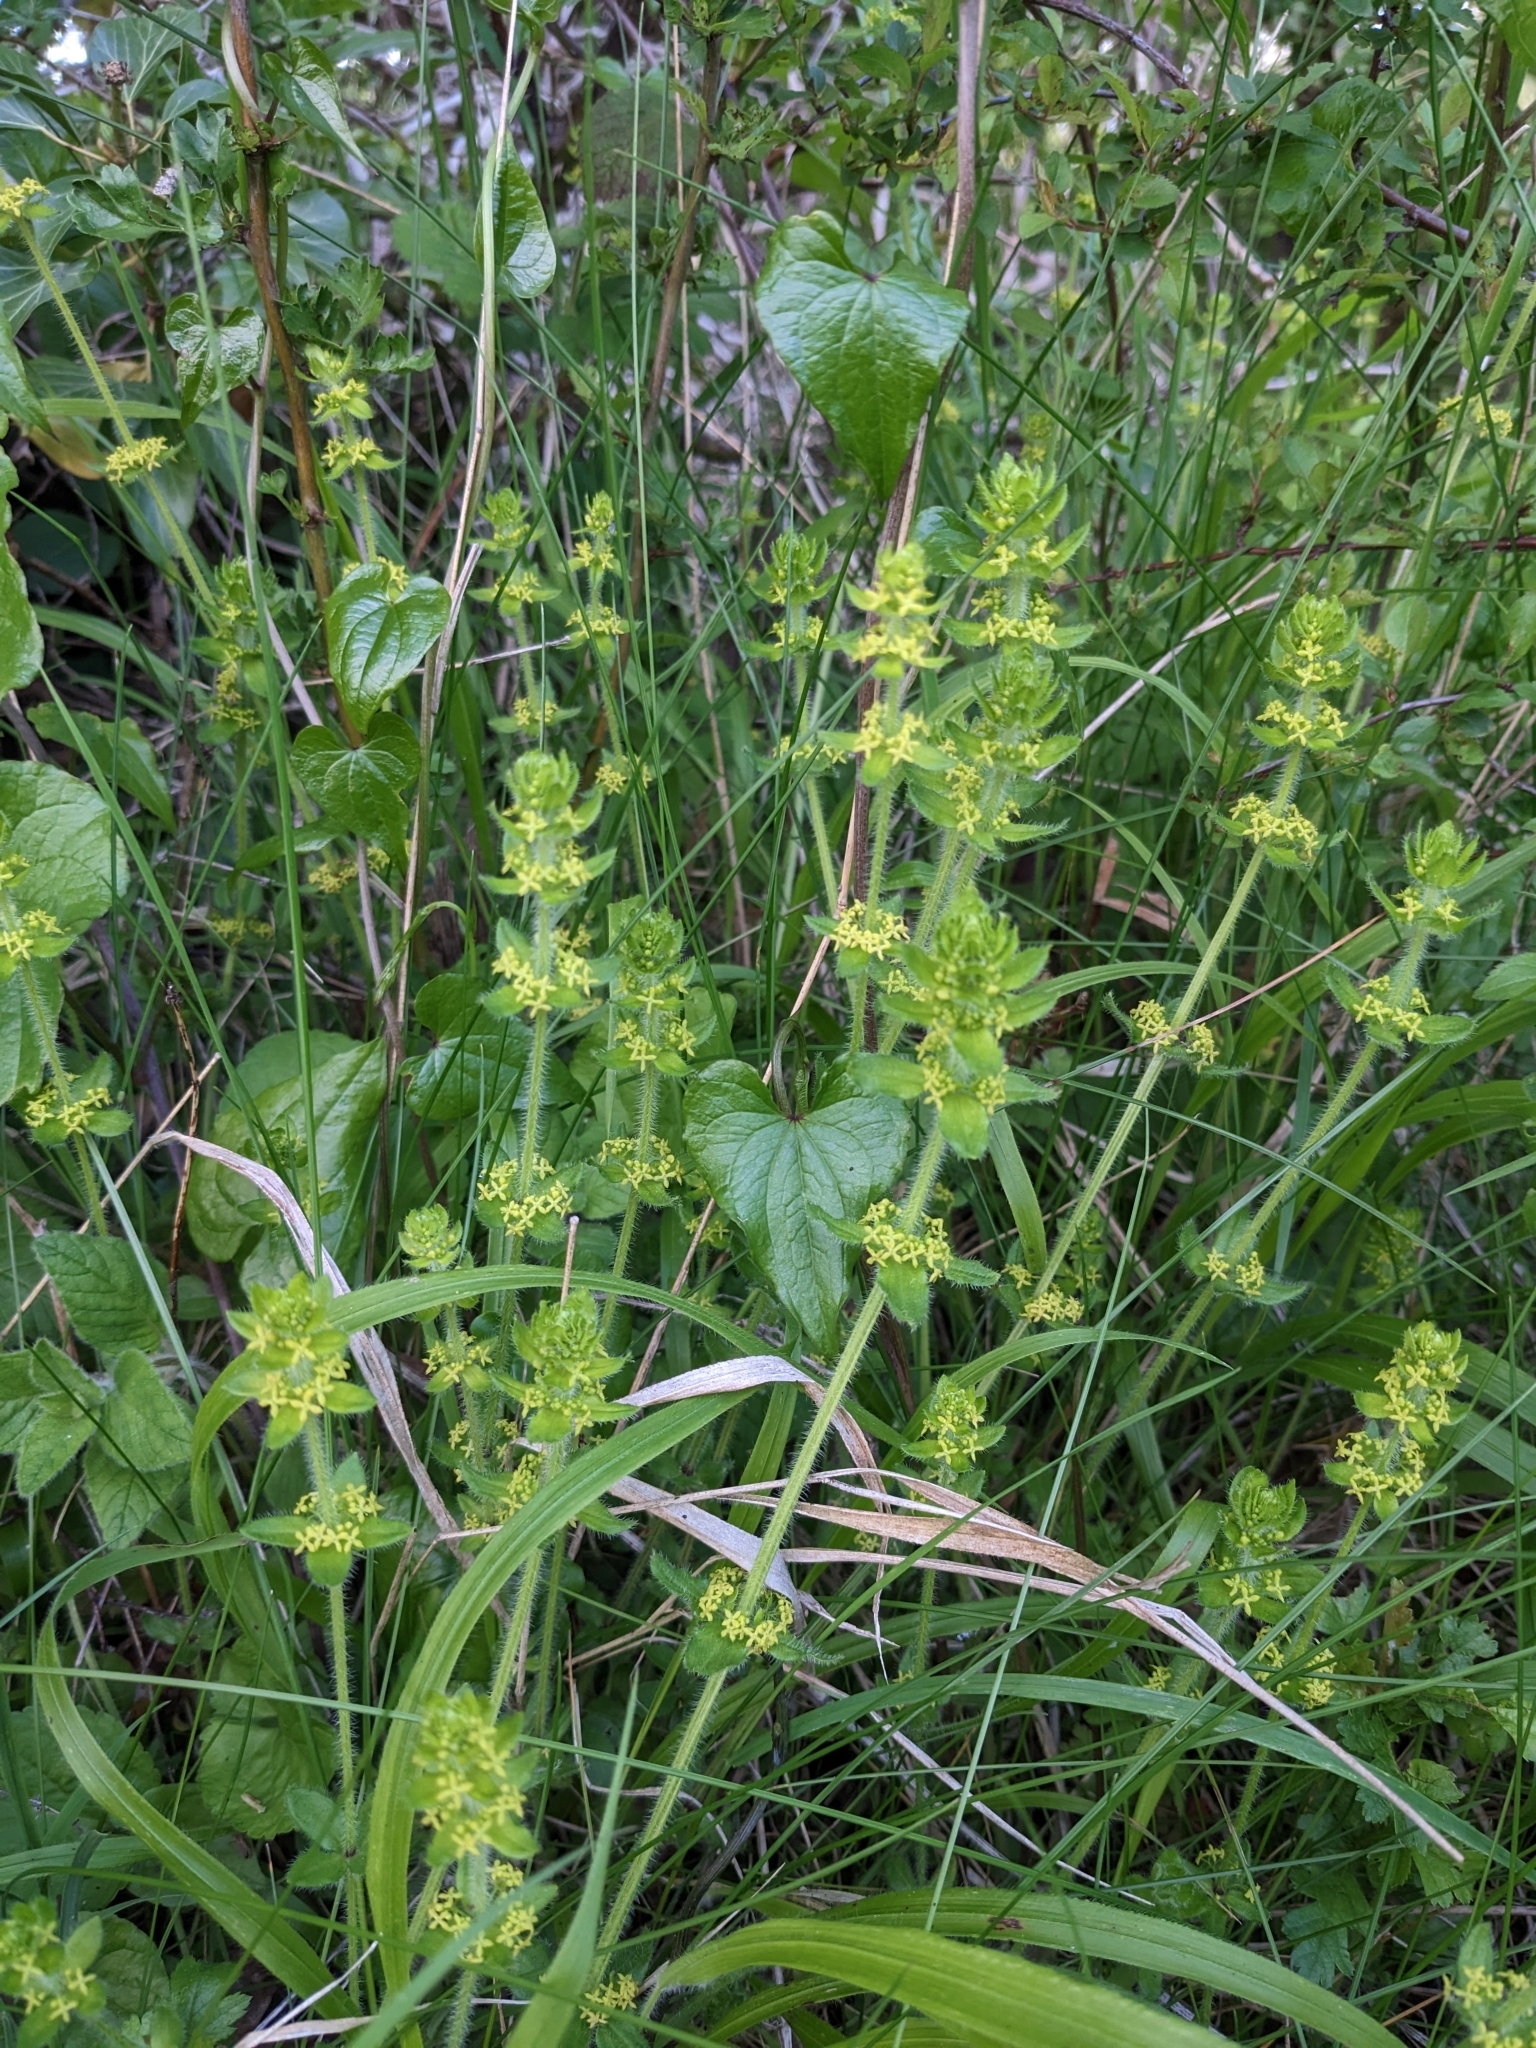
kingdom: Plantae
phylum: Tracheophyta
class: Magnoliopsida
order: Gentianales
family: Rubiaceae
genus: Cruciata
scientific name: Cruciata laevipes
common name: Crosswort
